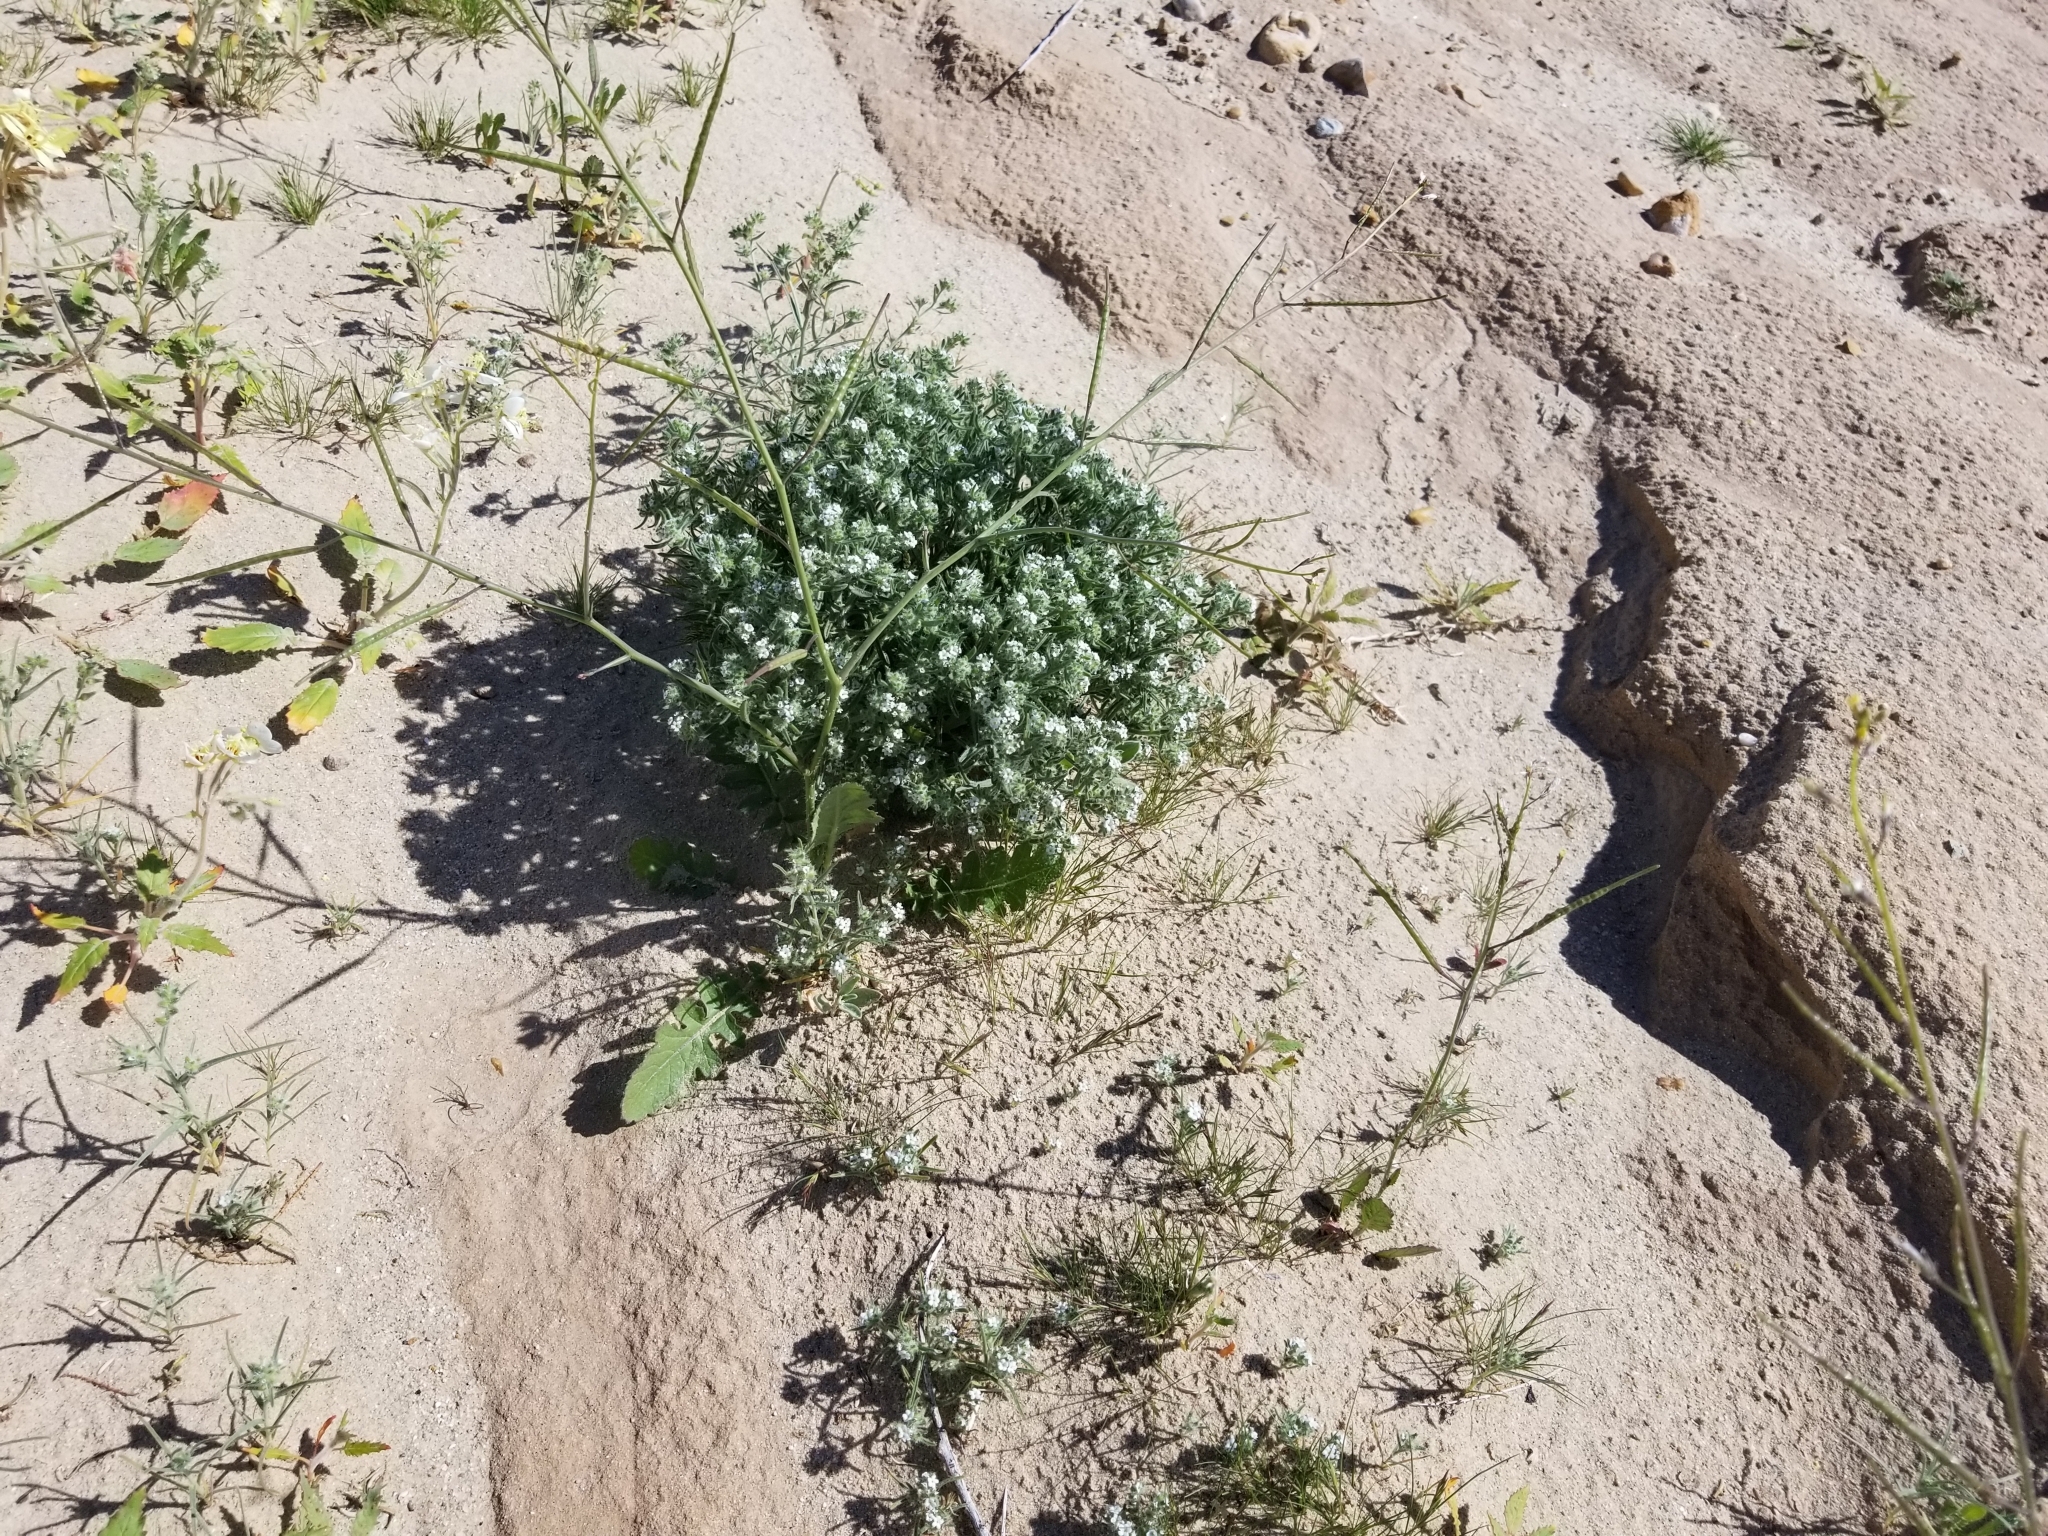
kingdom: Plantae
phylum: Tracheophyta
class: Magnoliopsida
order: Boraginales
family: Boraginaceae
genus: Johnstonella
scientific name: Johnstonella angustifolia
